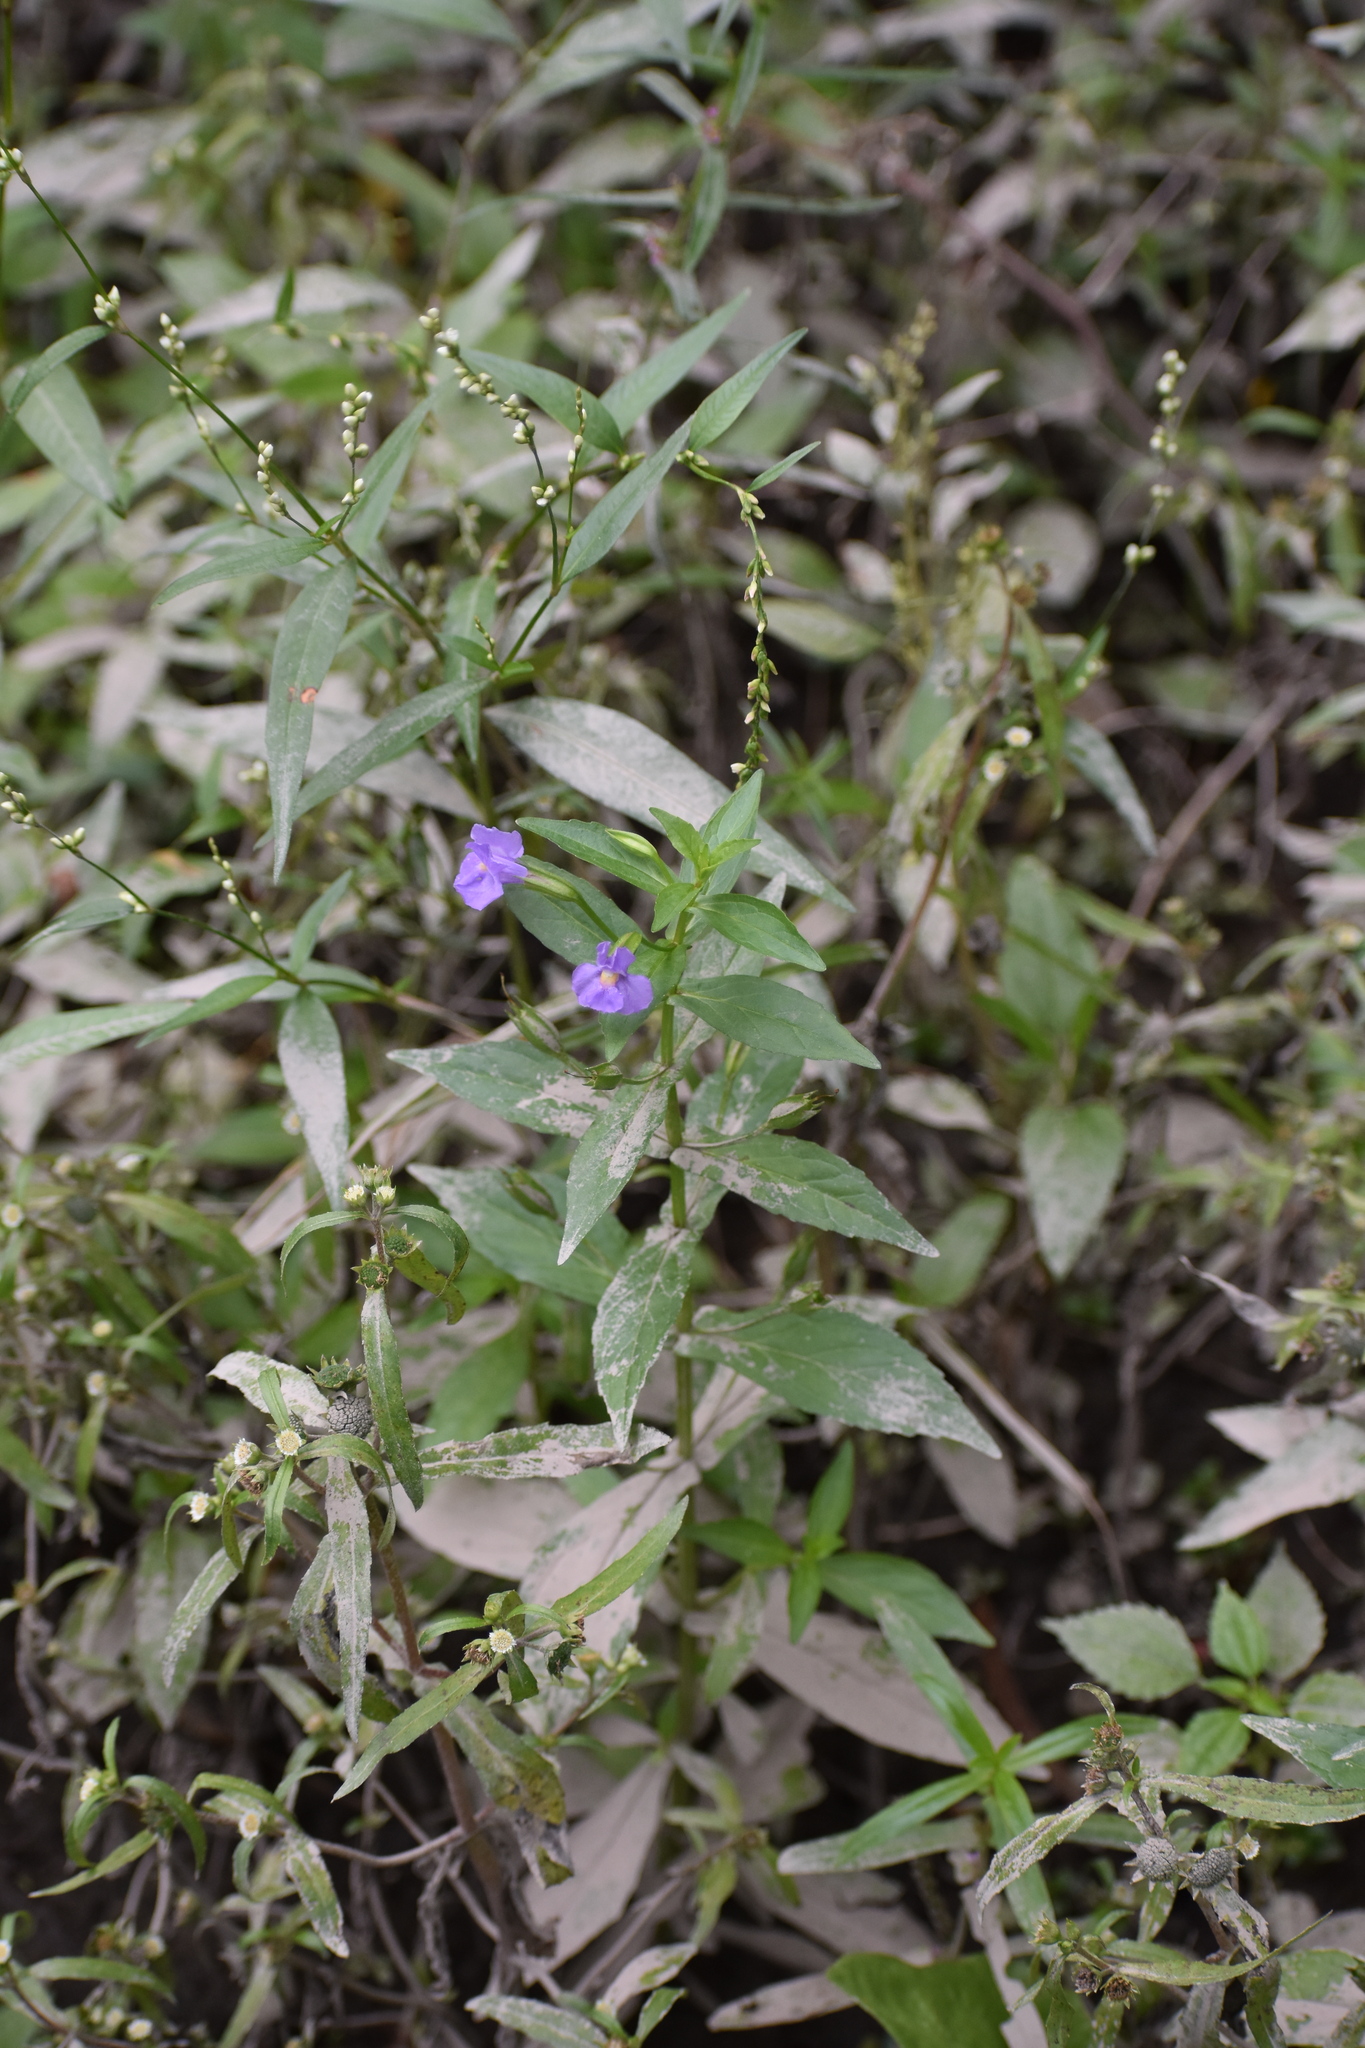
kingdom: Plantae
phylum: Tracheophyta
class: Magnoliopsida
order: Lamiales
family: Phrymaceae
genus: Mimulus
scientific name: Mimulus ringens
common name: Allegheny monkeyflower
